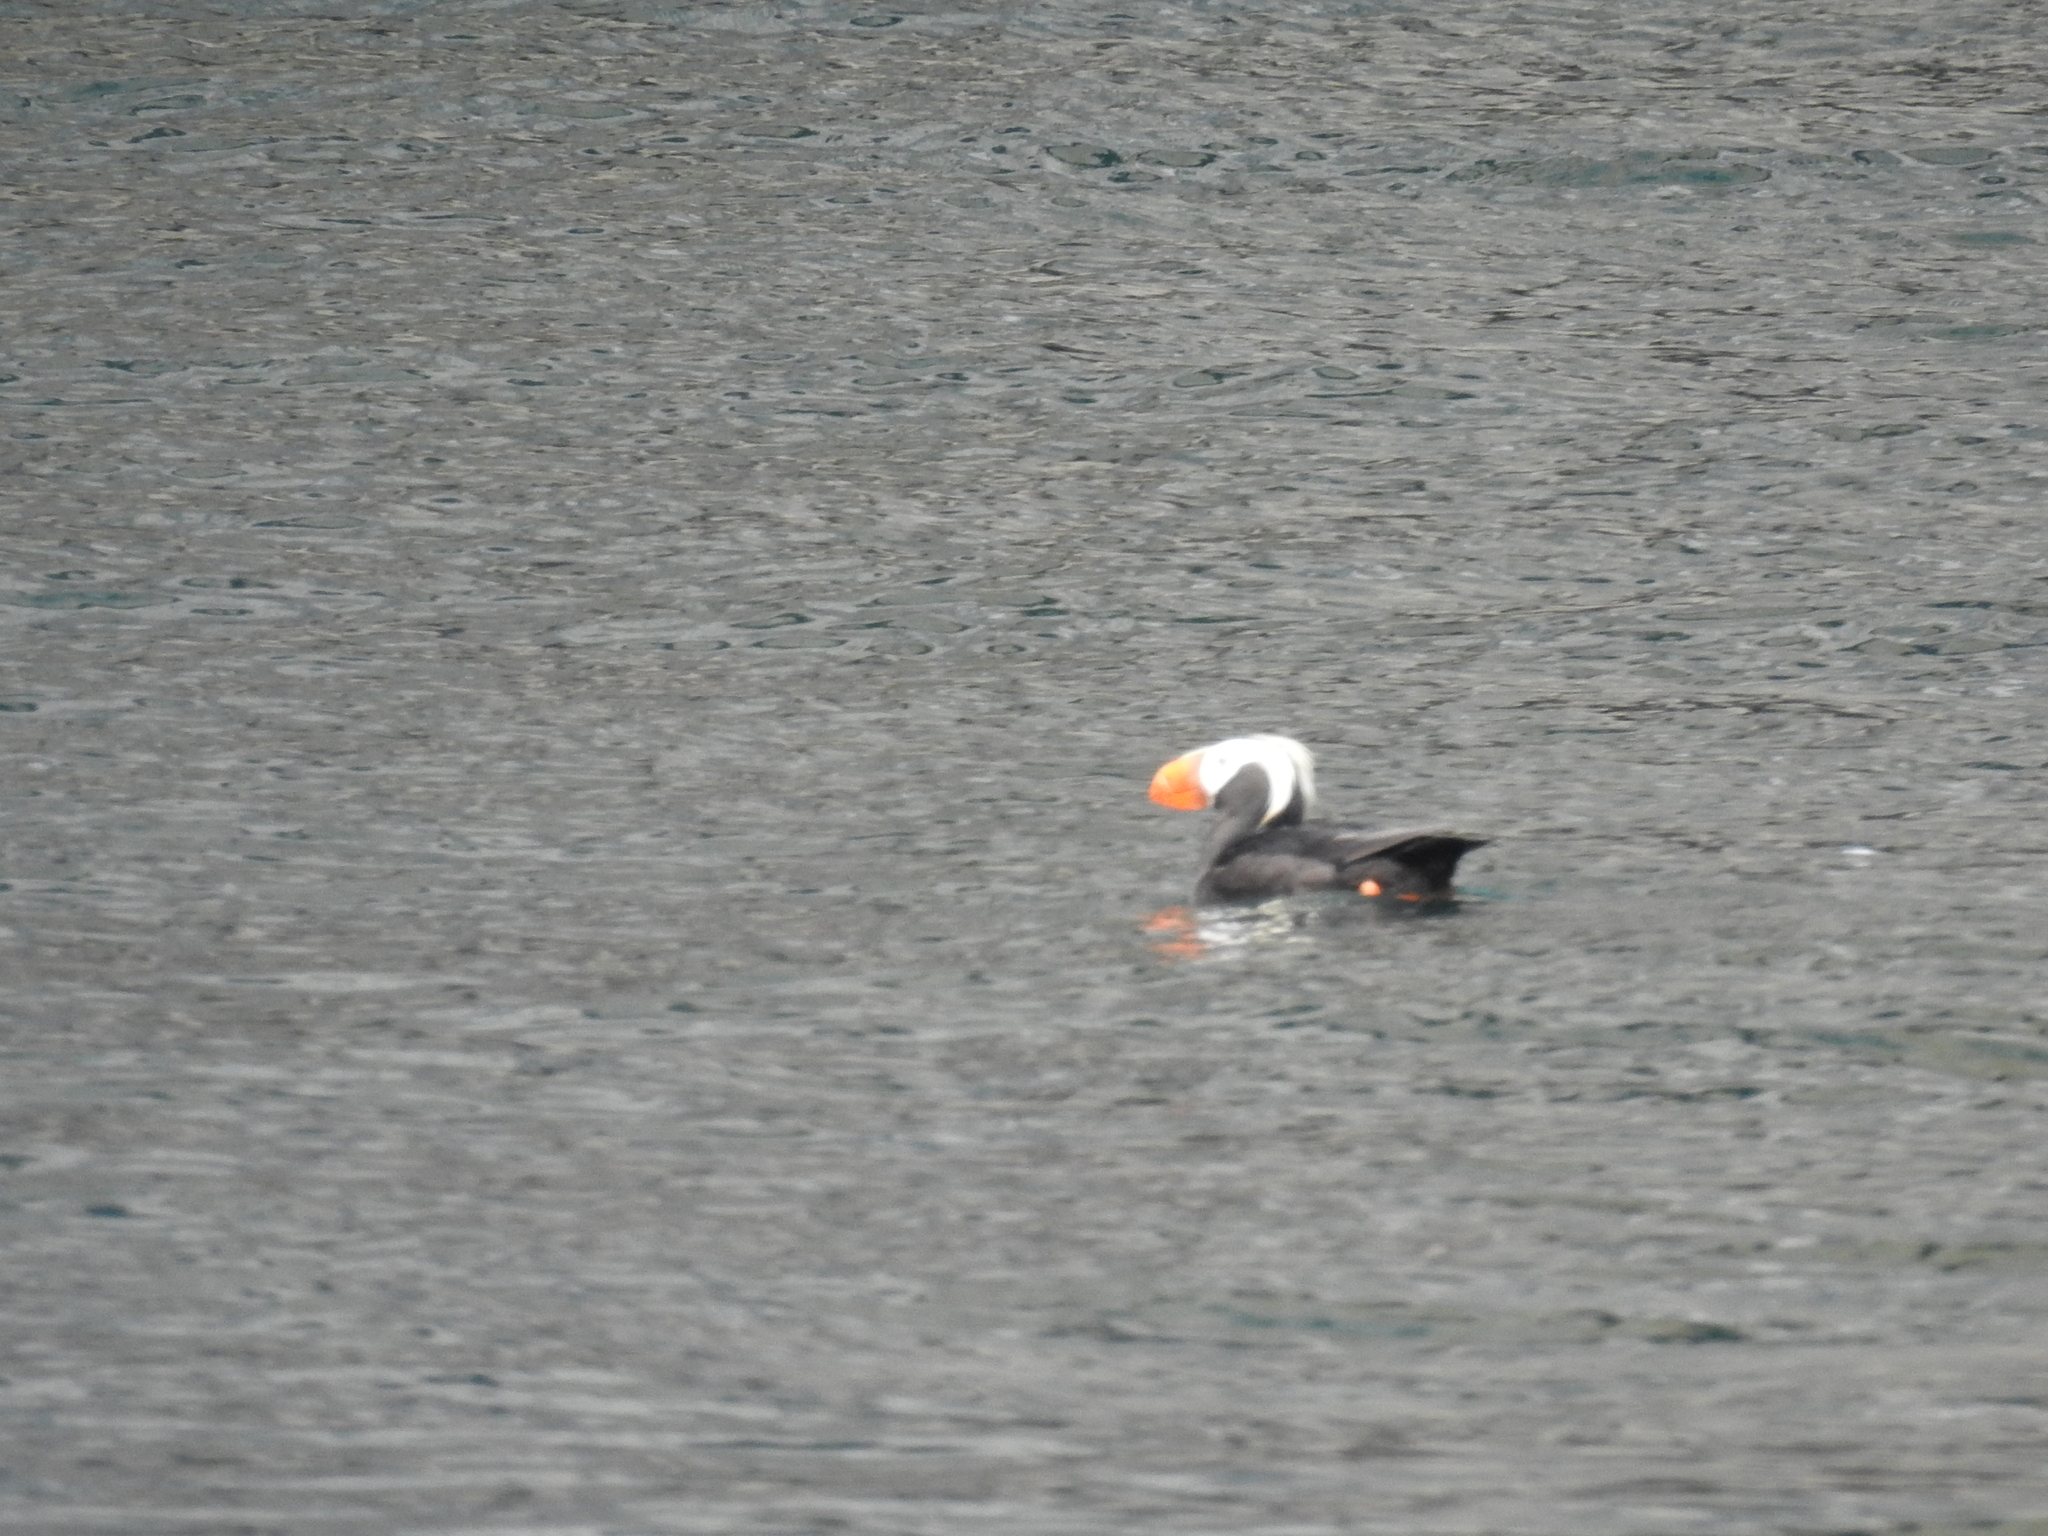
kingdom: Animalia
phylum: Chordata
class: Aves
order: Charadriiformes
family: Alcidae
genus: Fratercula
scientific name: Fratercula cirrhata
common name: Tufted puffin
